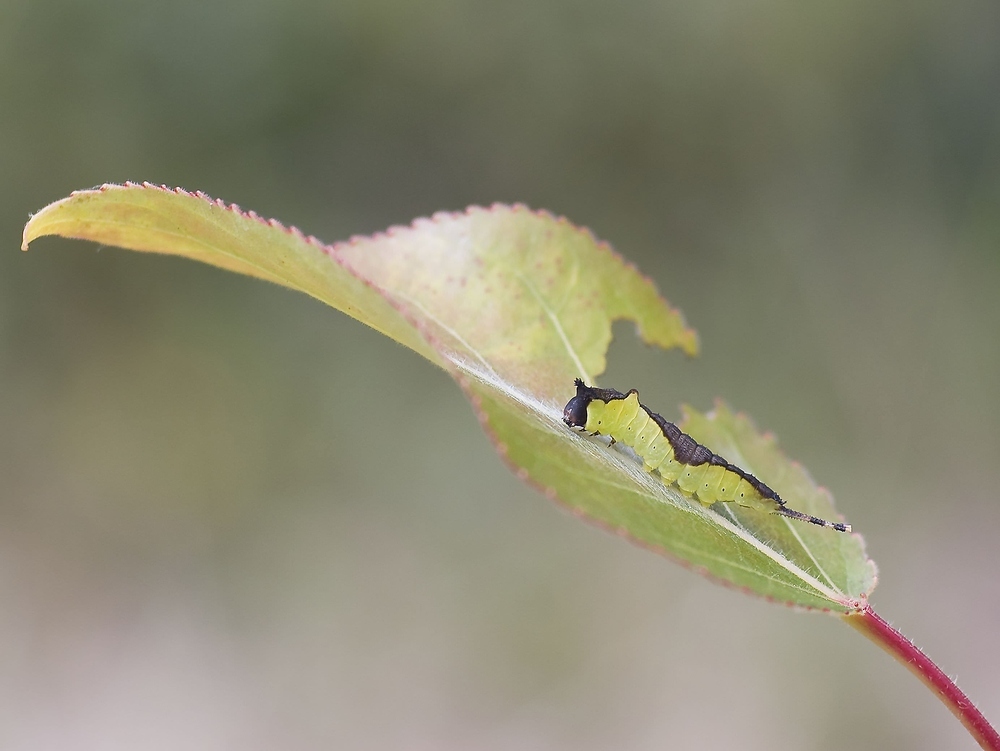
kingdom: Animalia
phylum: Arthropoda
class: Insecta
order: Lepidoptera
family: Notodontidae
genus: Cerura
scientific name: Cerura vinula
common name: Puss moth
